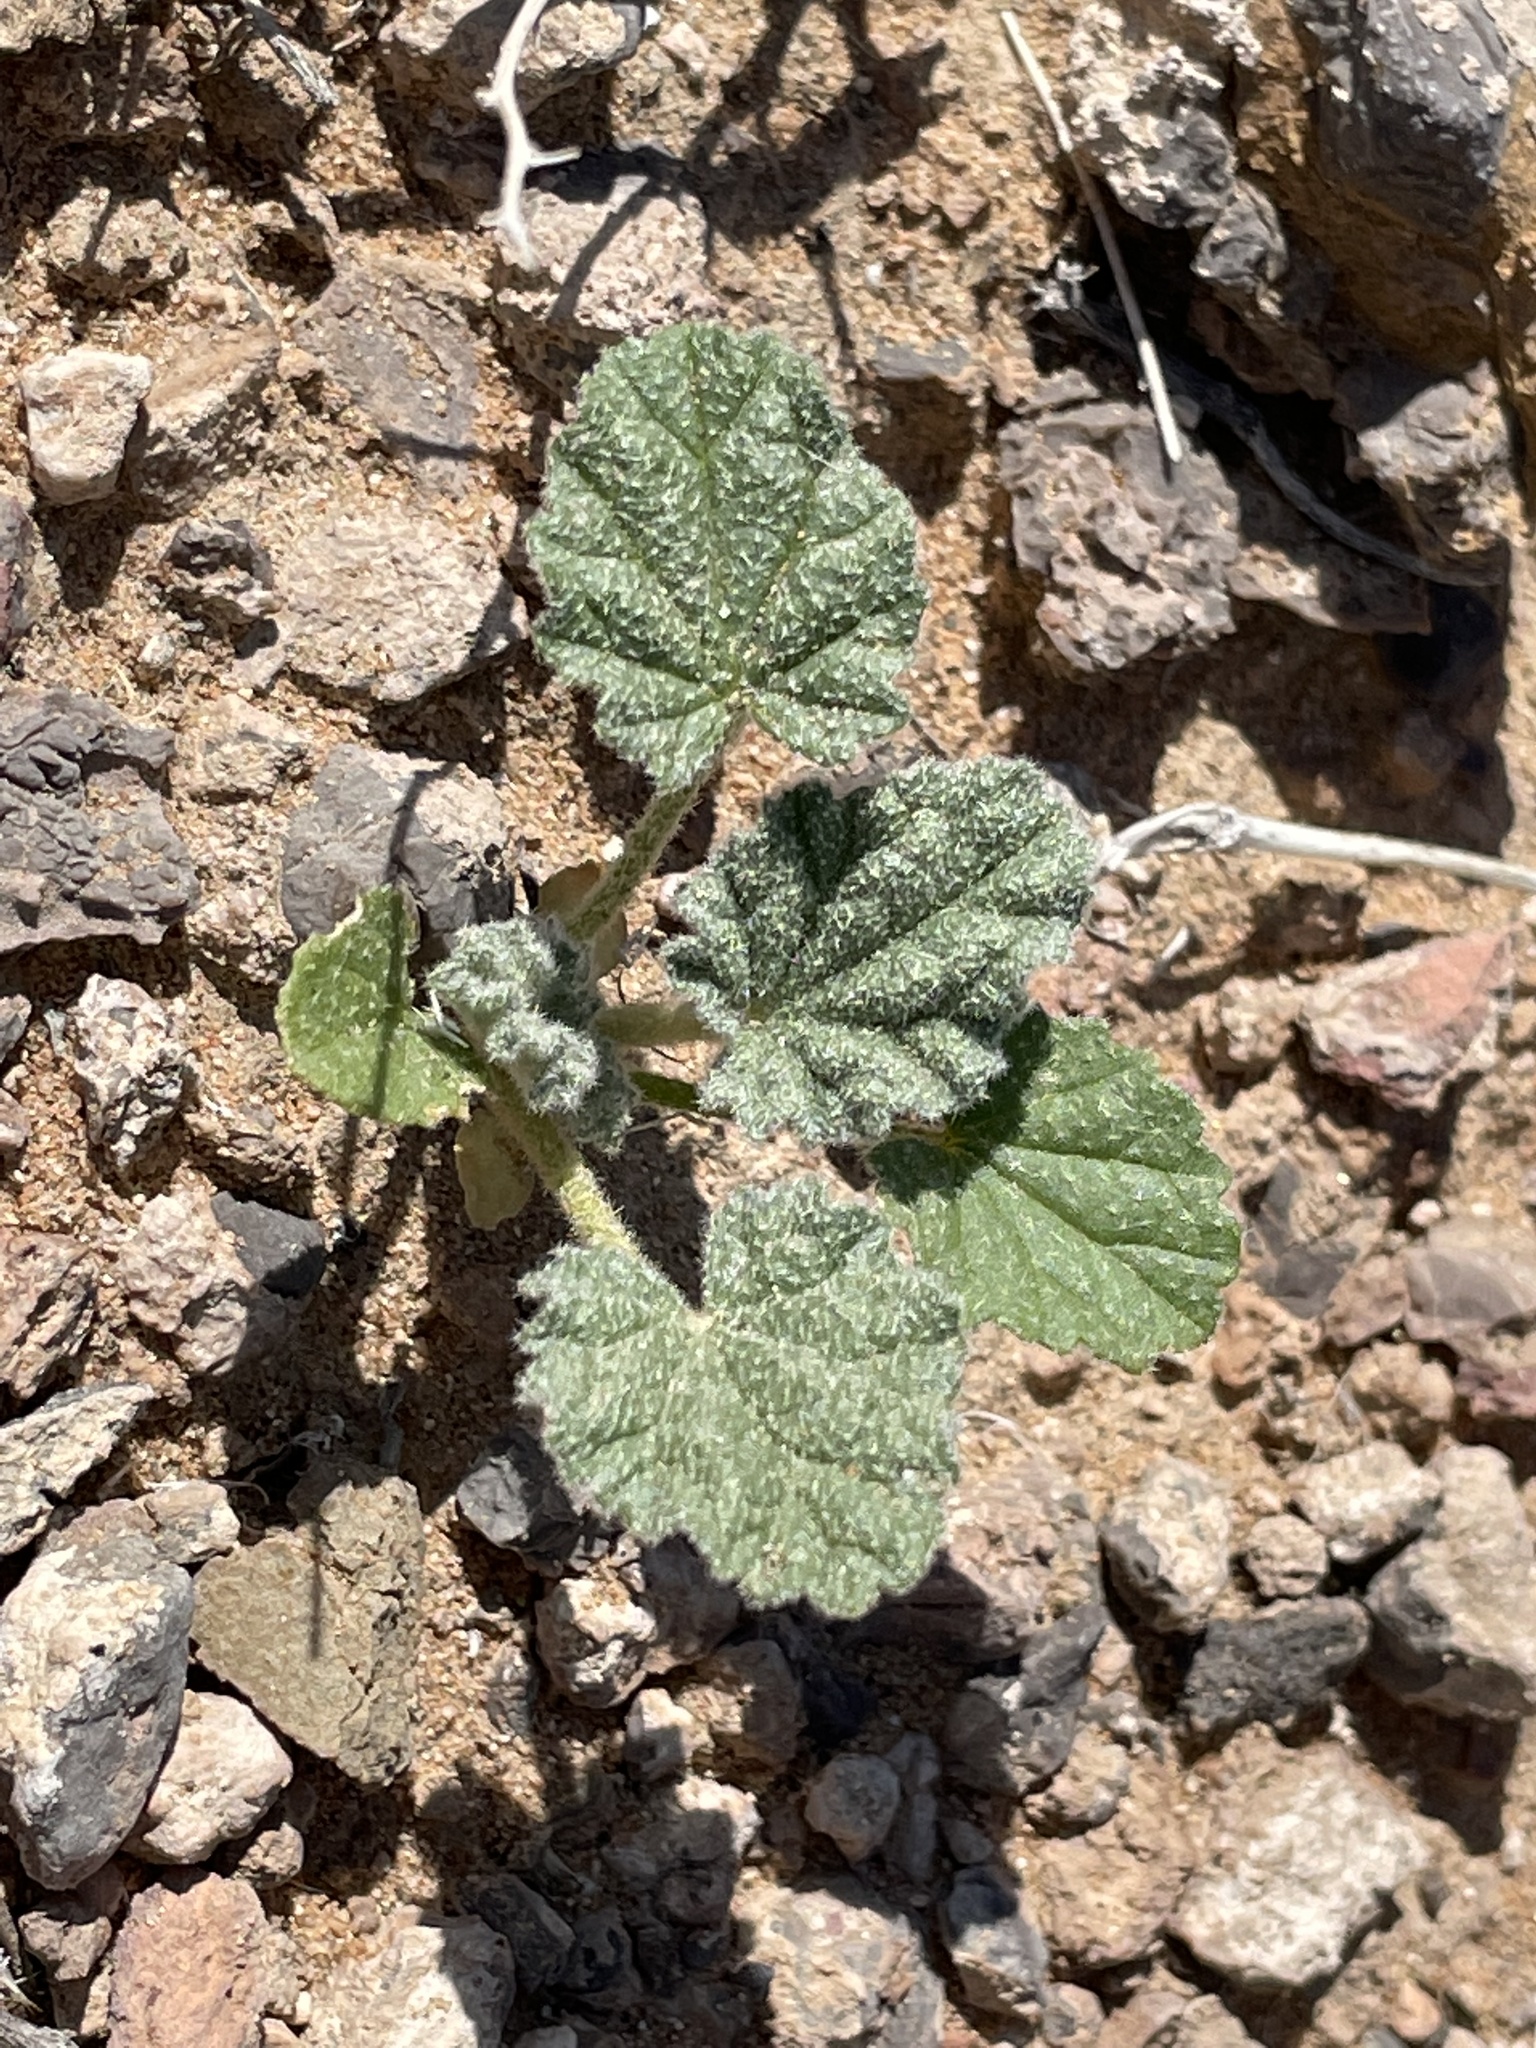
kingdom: Plantae
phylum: Tracheophyta
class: Magnoliopsida
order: Malvales
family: Malvaceae
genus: Sphaeralcea
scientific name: Sphaeralcea ambigua
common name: Apricot globe-mallow
